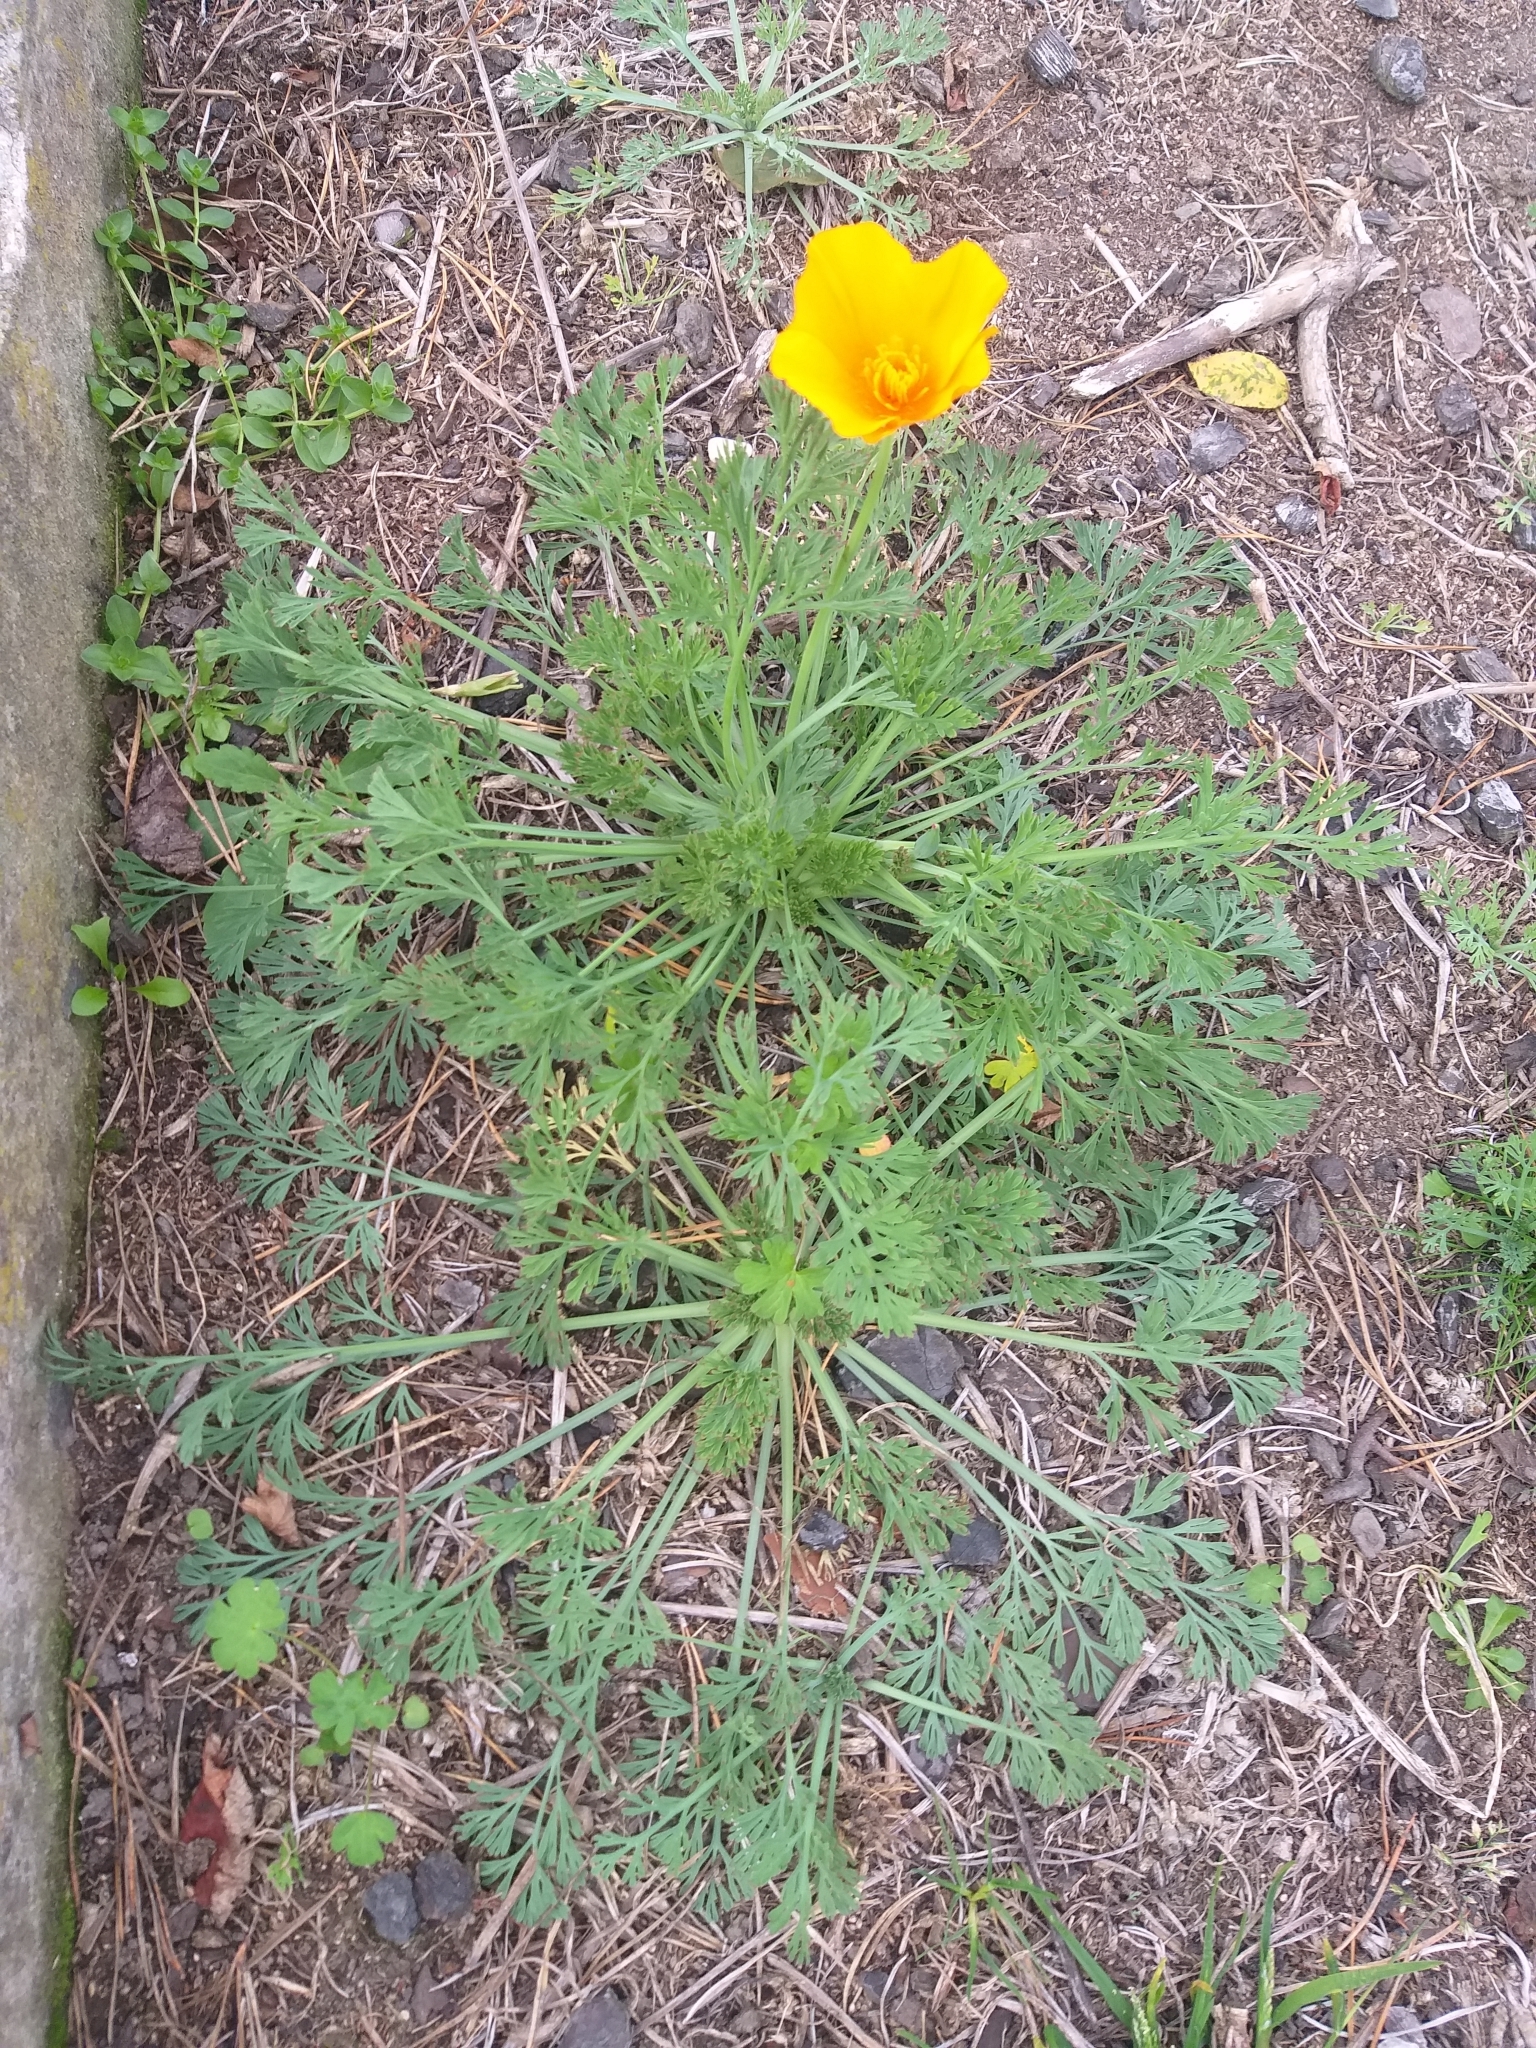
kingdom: Plantae
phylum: Tracheophyta
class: Magnoliopsida
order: Ranunculales
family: Papaveraceae
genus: Eschscholzia
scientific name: Eschscholzia californica
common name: California poppy
